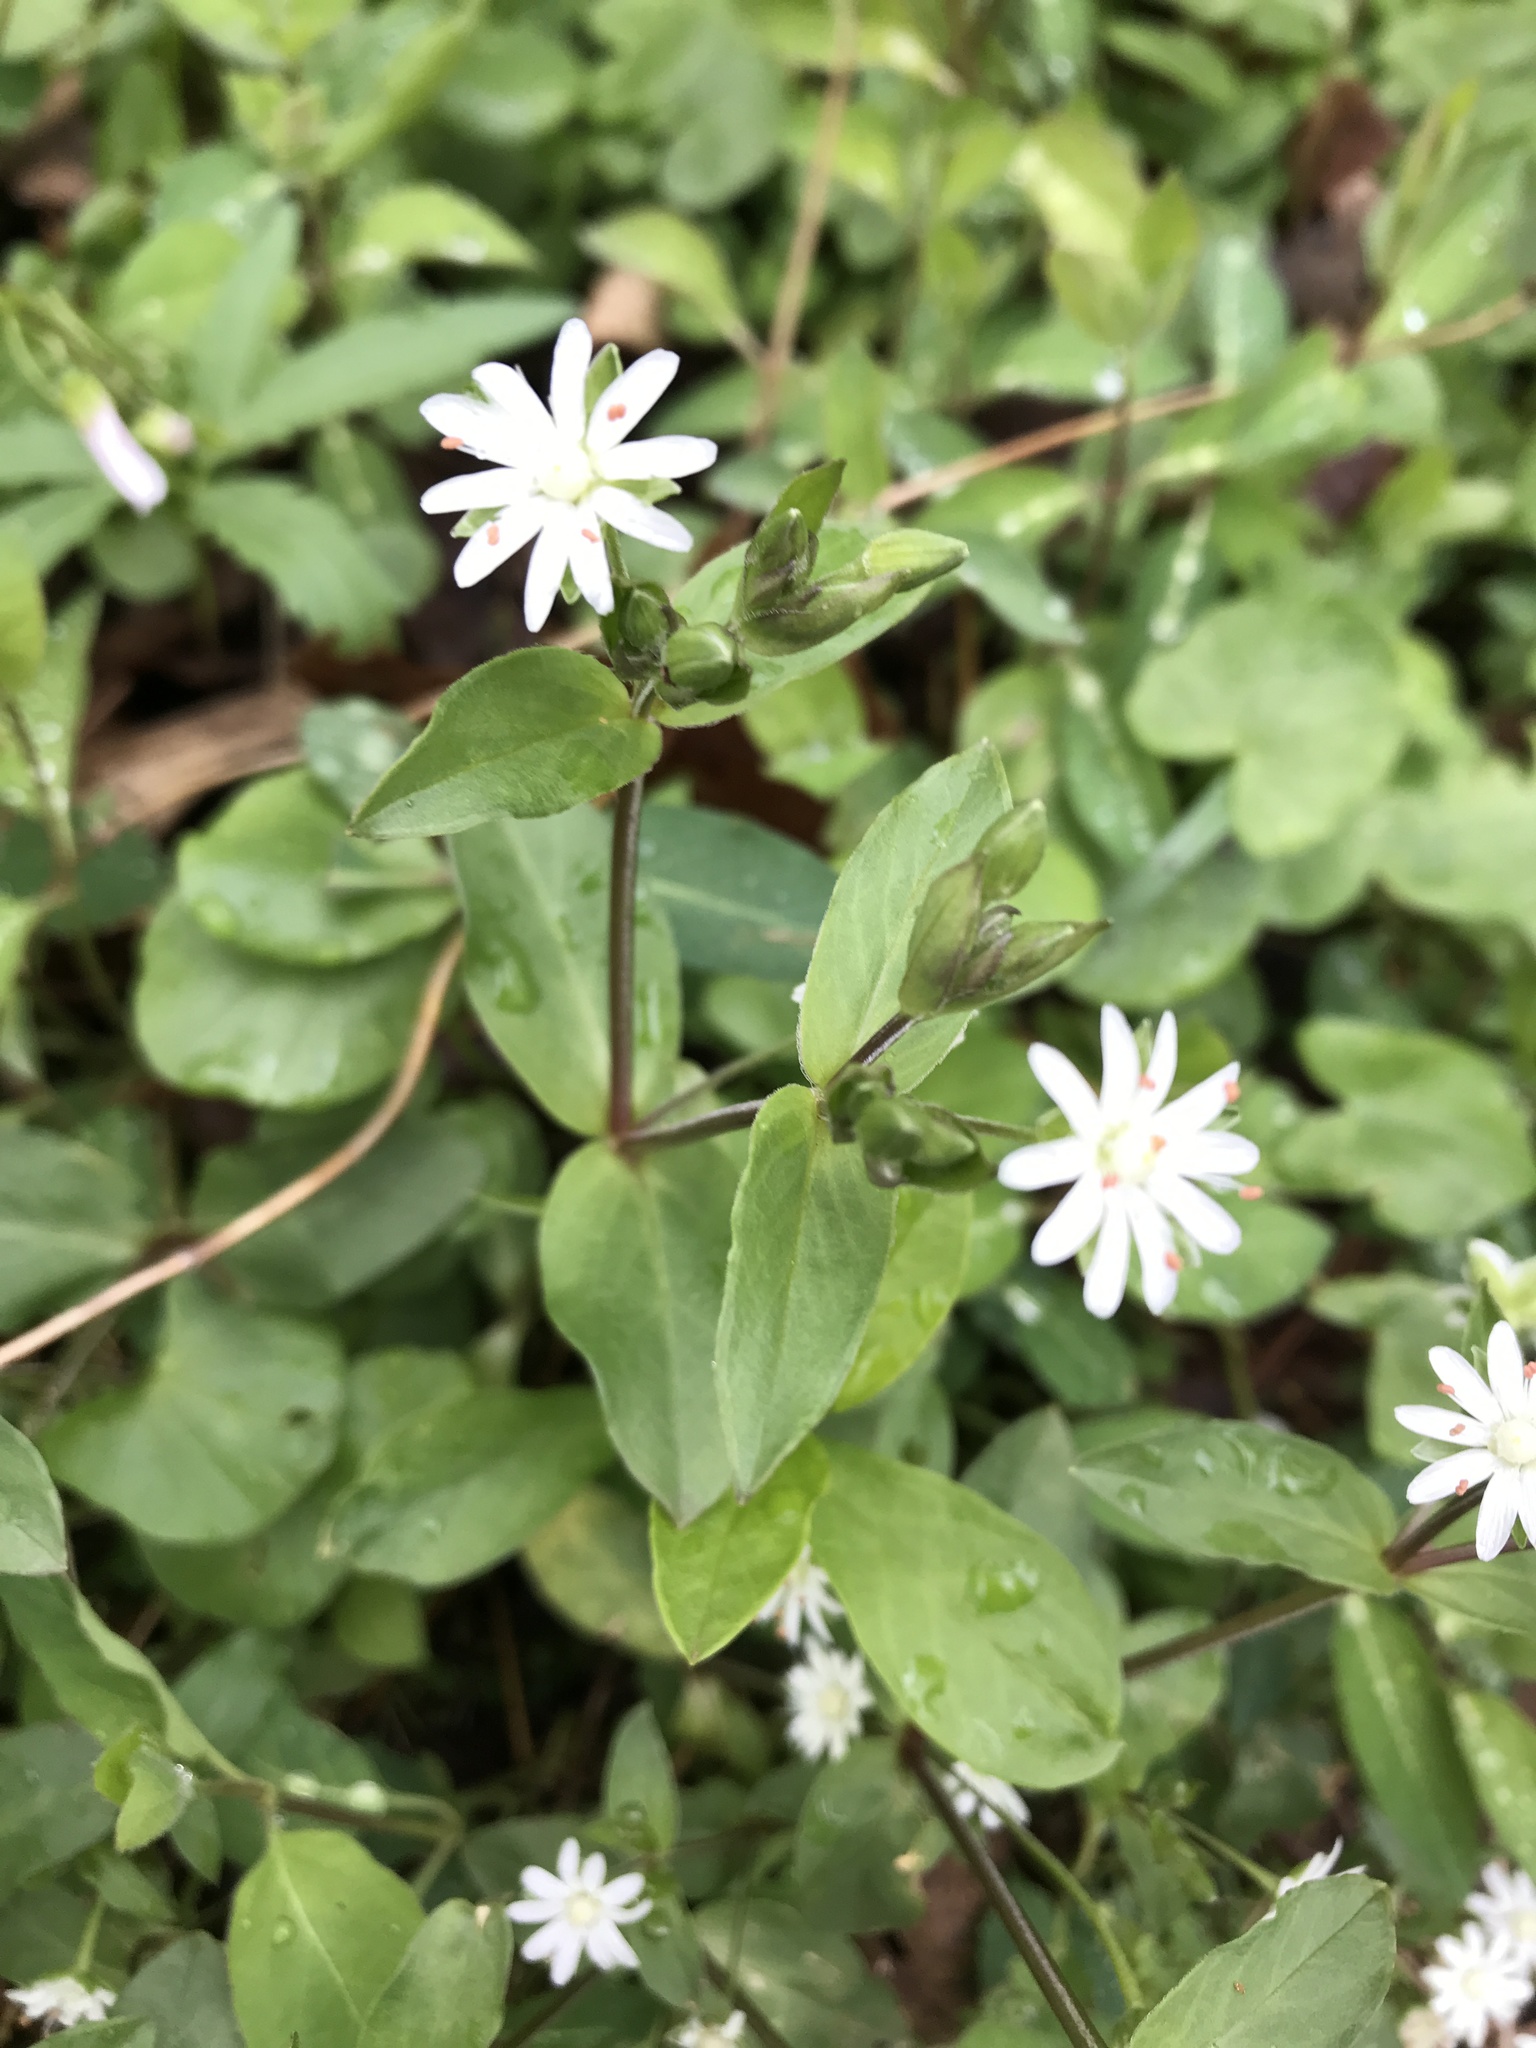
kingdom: Plantae
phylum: Tracheophyta
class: Magnoliopsida
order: Caryophyllales
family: Caryophyllaceae
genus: Stellaria
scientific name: Stellaria pubera
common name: Star chickweed
